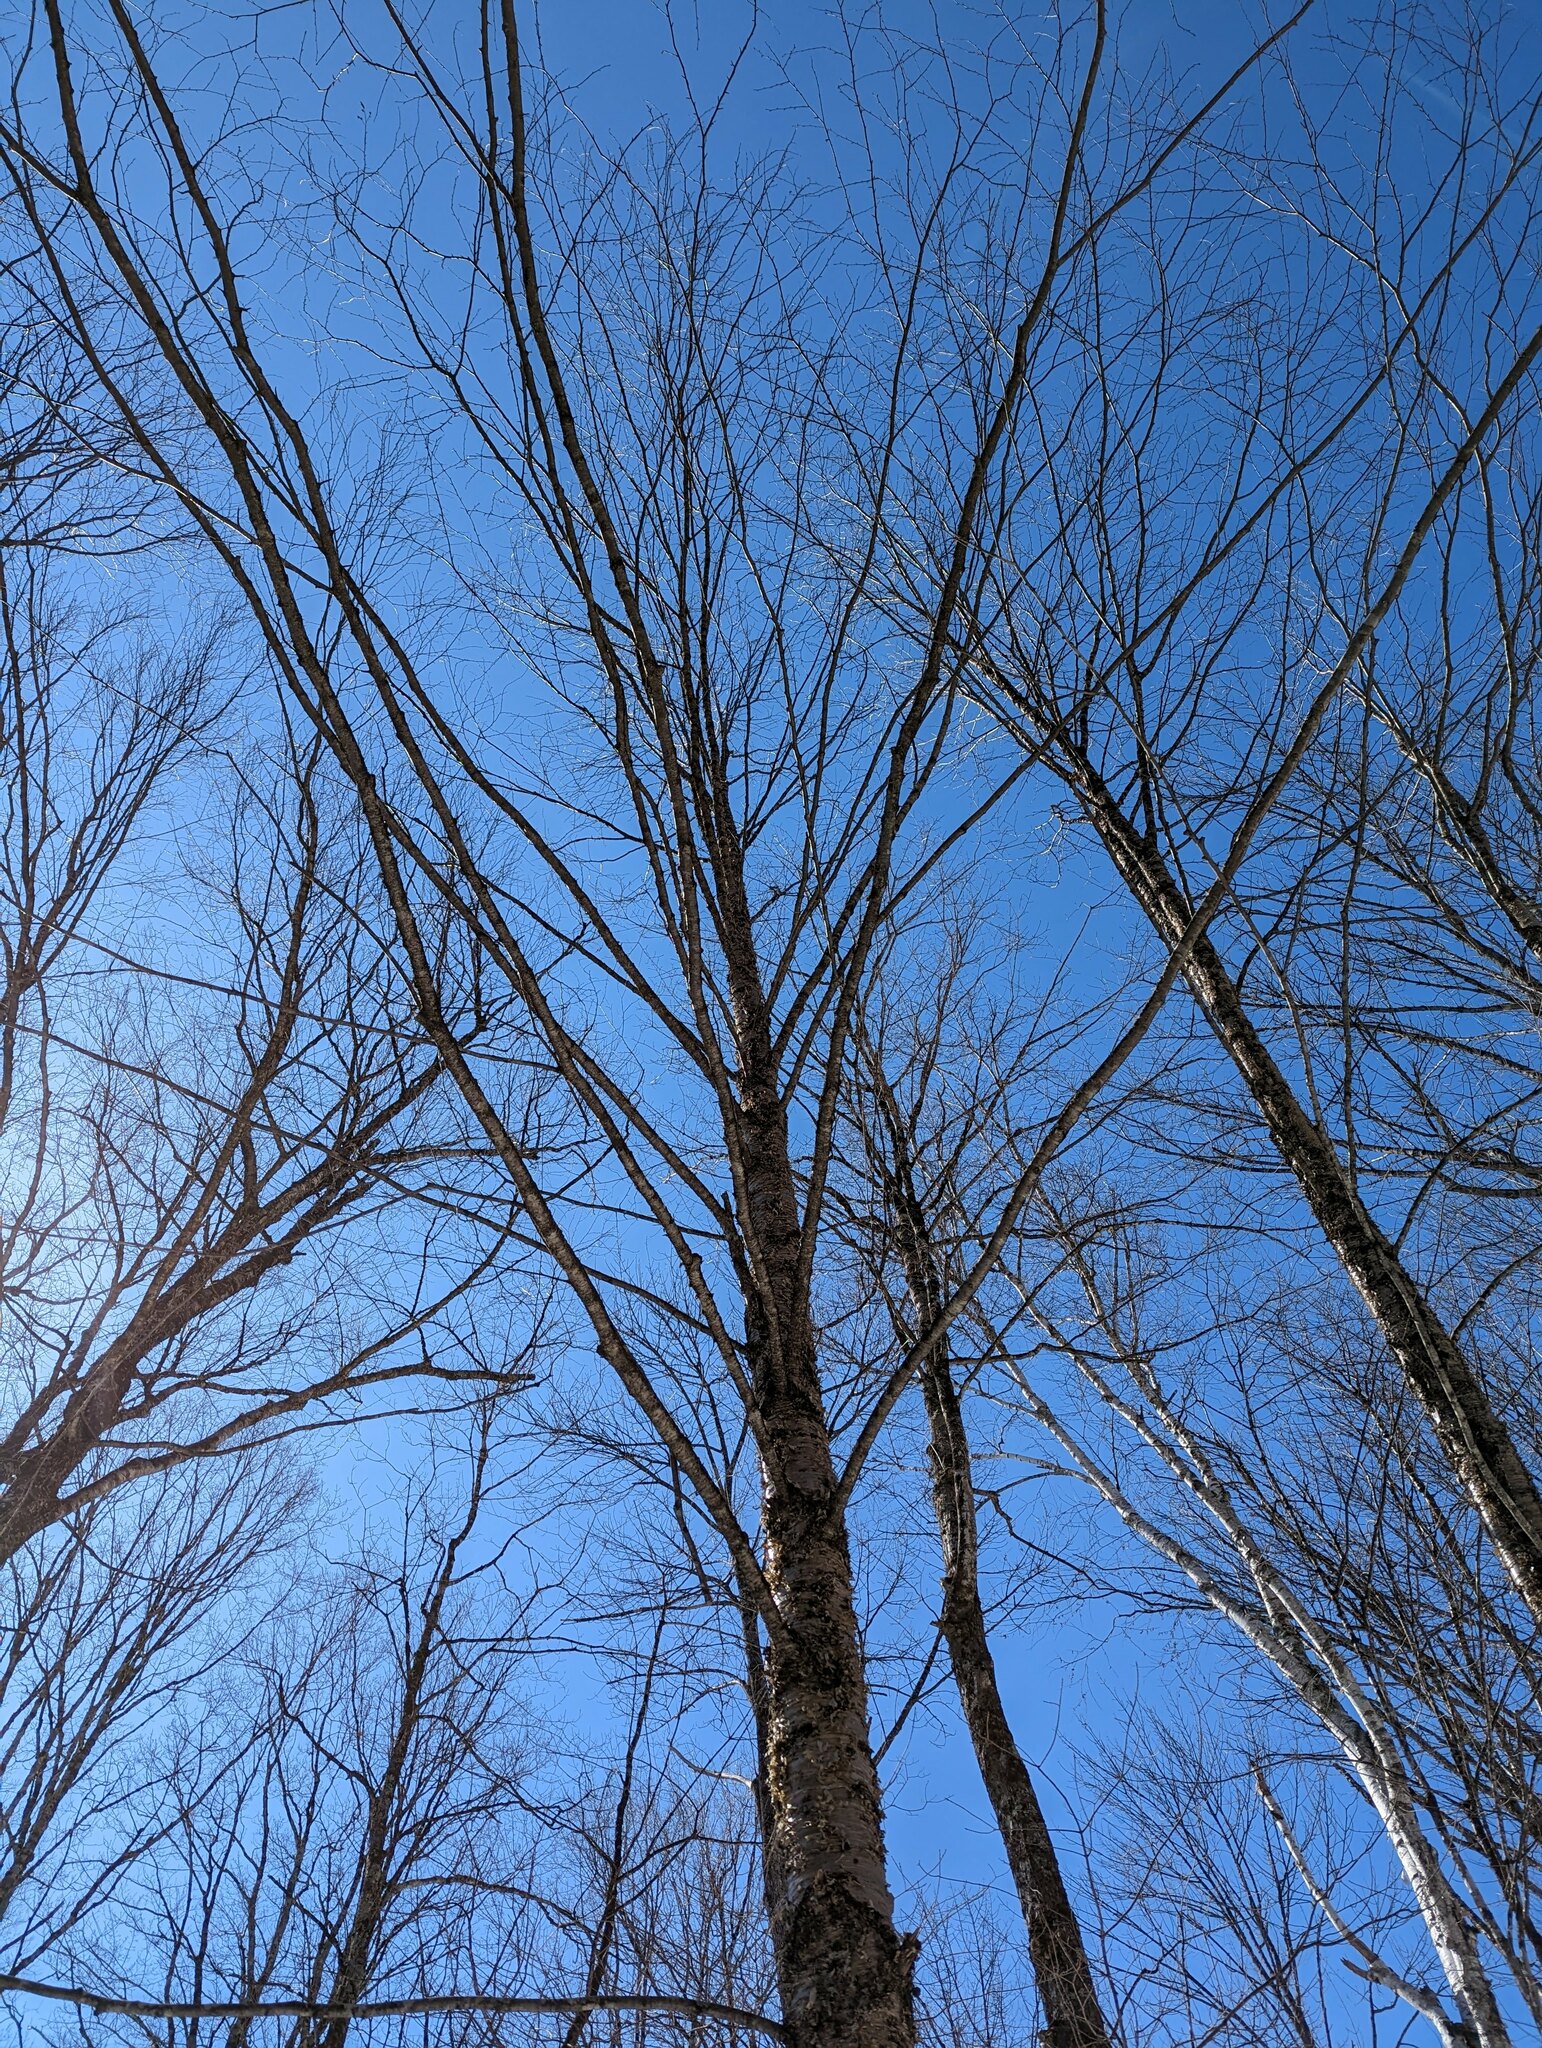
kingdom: Plantae
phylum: Tracheophyta
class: Magnoliopsida
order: Fagales
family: Betulaceae
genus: Betula
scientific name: Betula alleghaniensis
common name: Yellow birch
